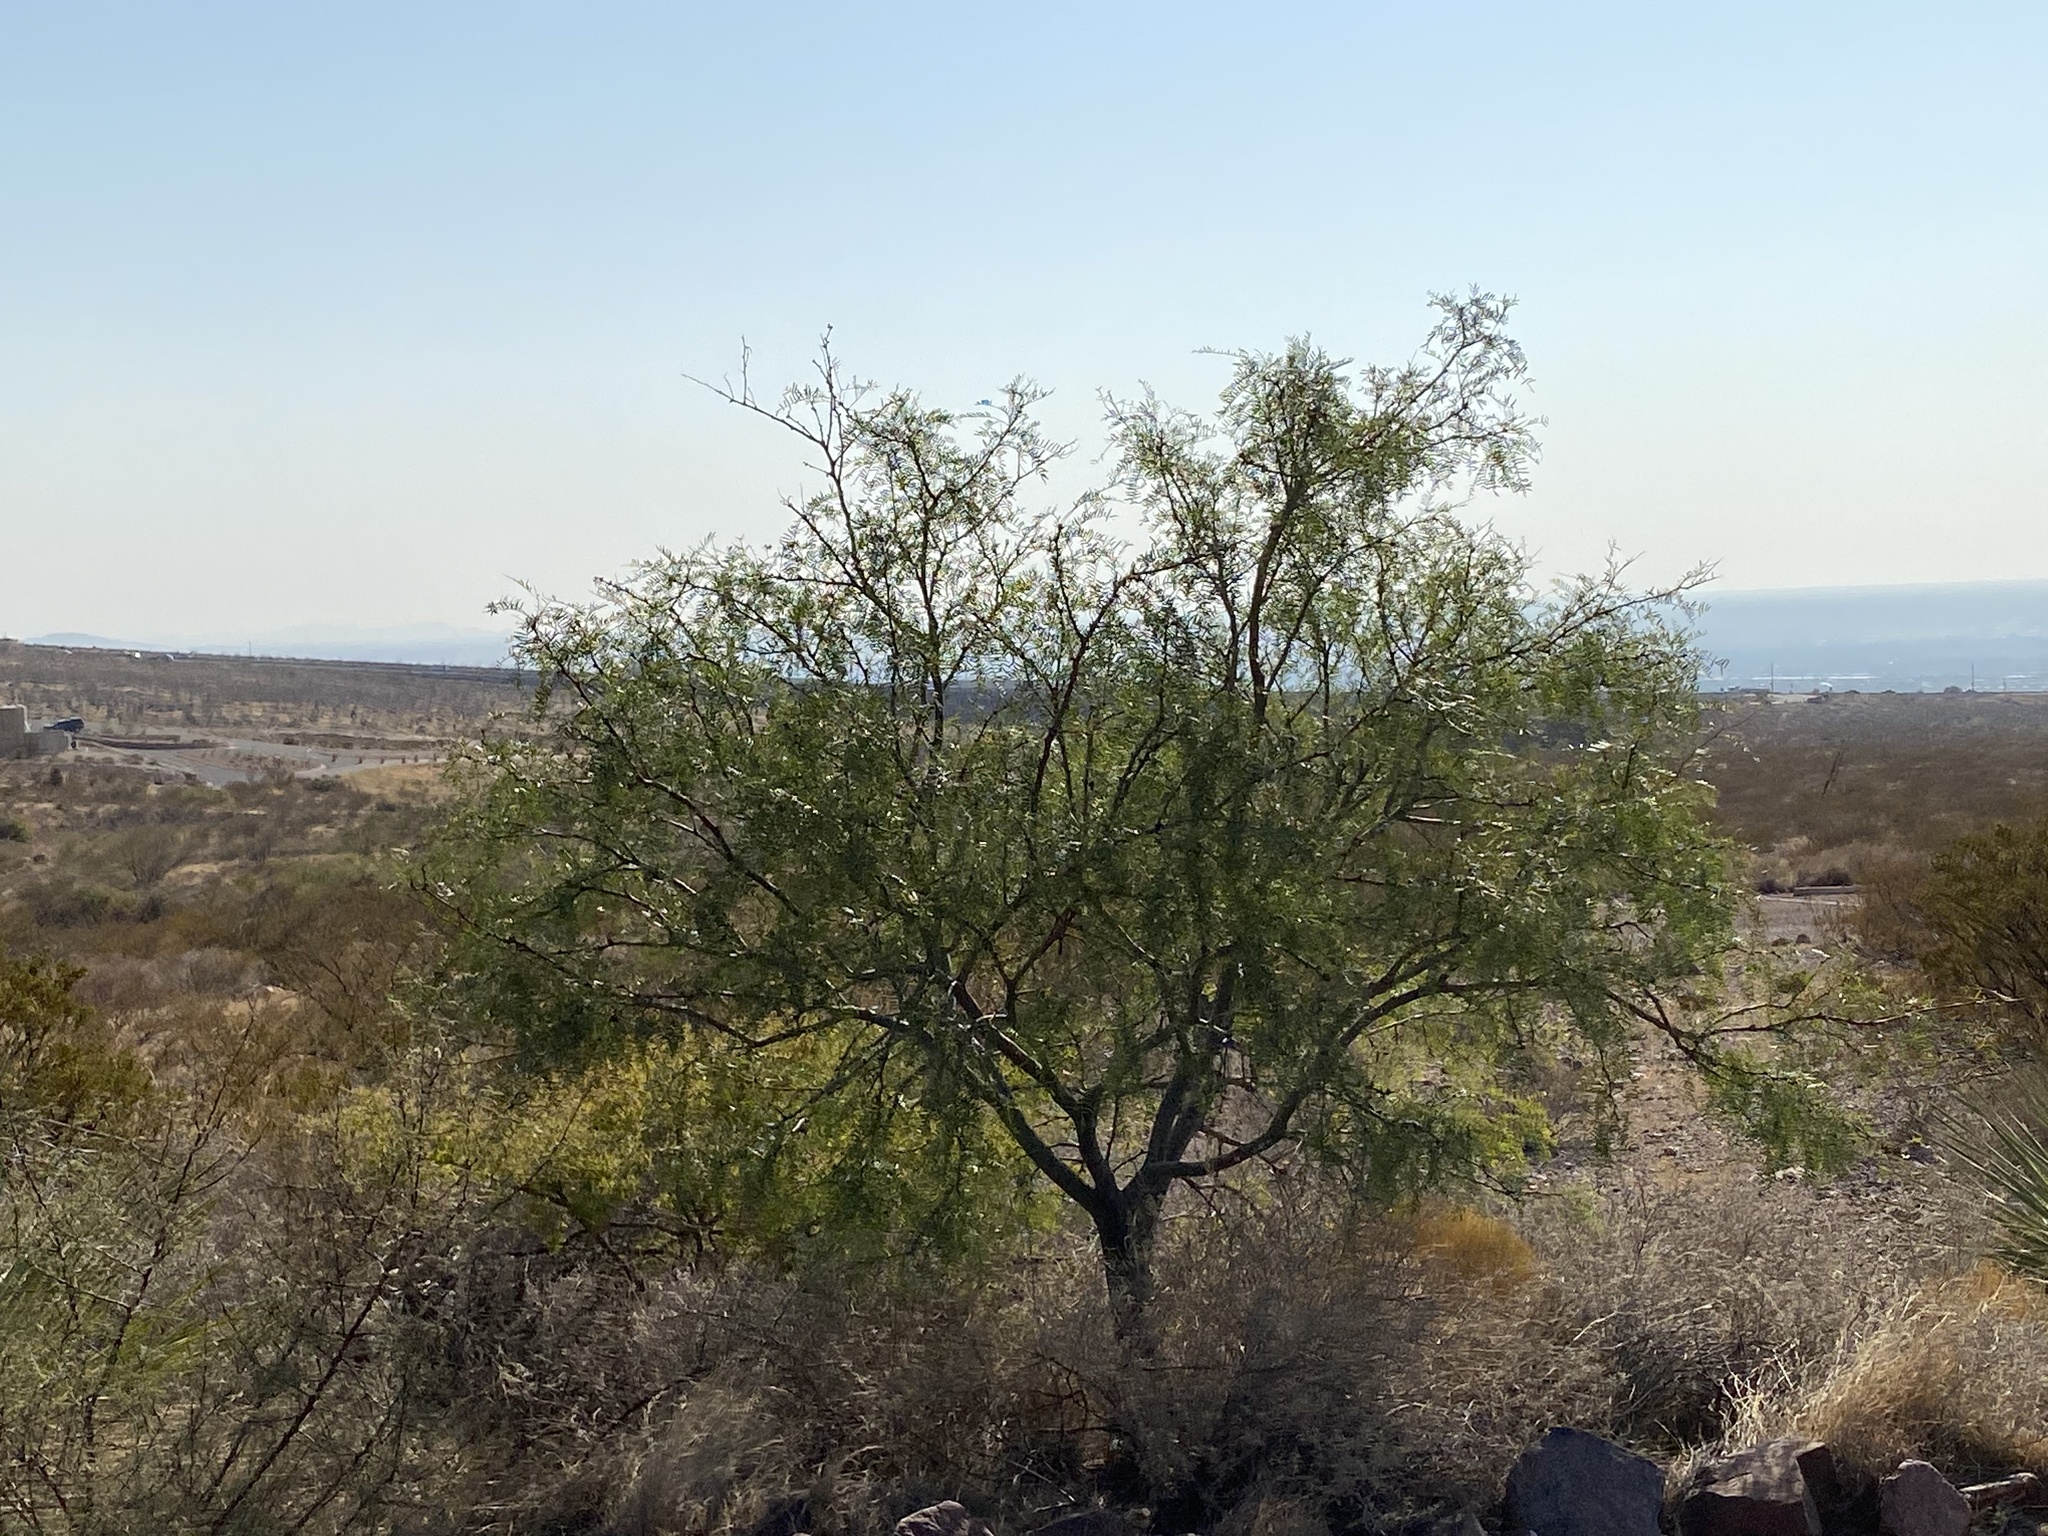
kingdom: Plantae
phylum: Tracheophyta
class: Magnoliopsida
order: Fabales
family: Fabaceae
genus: Prosopis
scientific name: Prosopis glandulosa
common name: Honey mesquite
